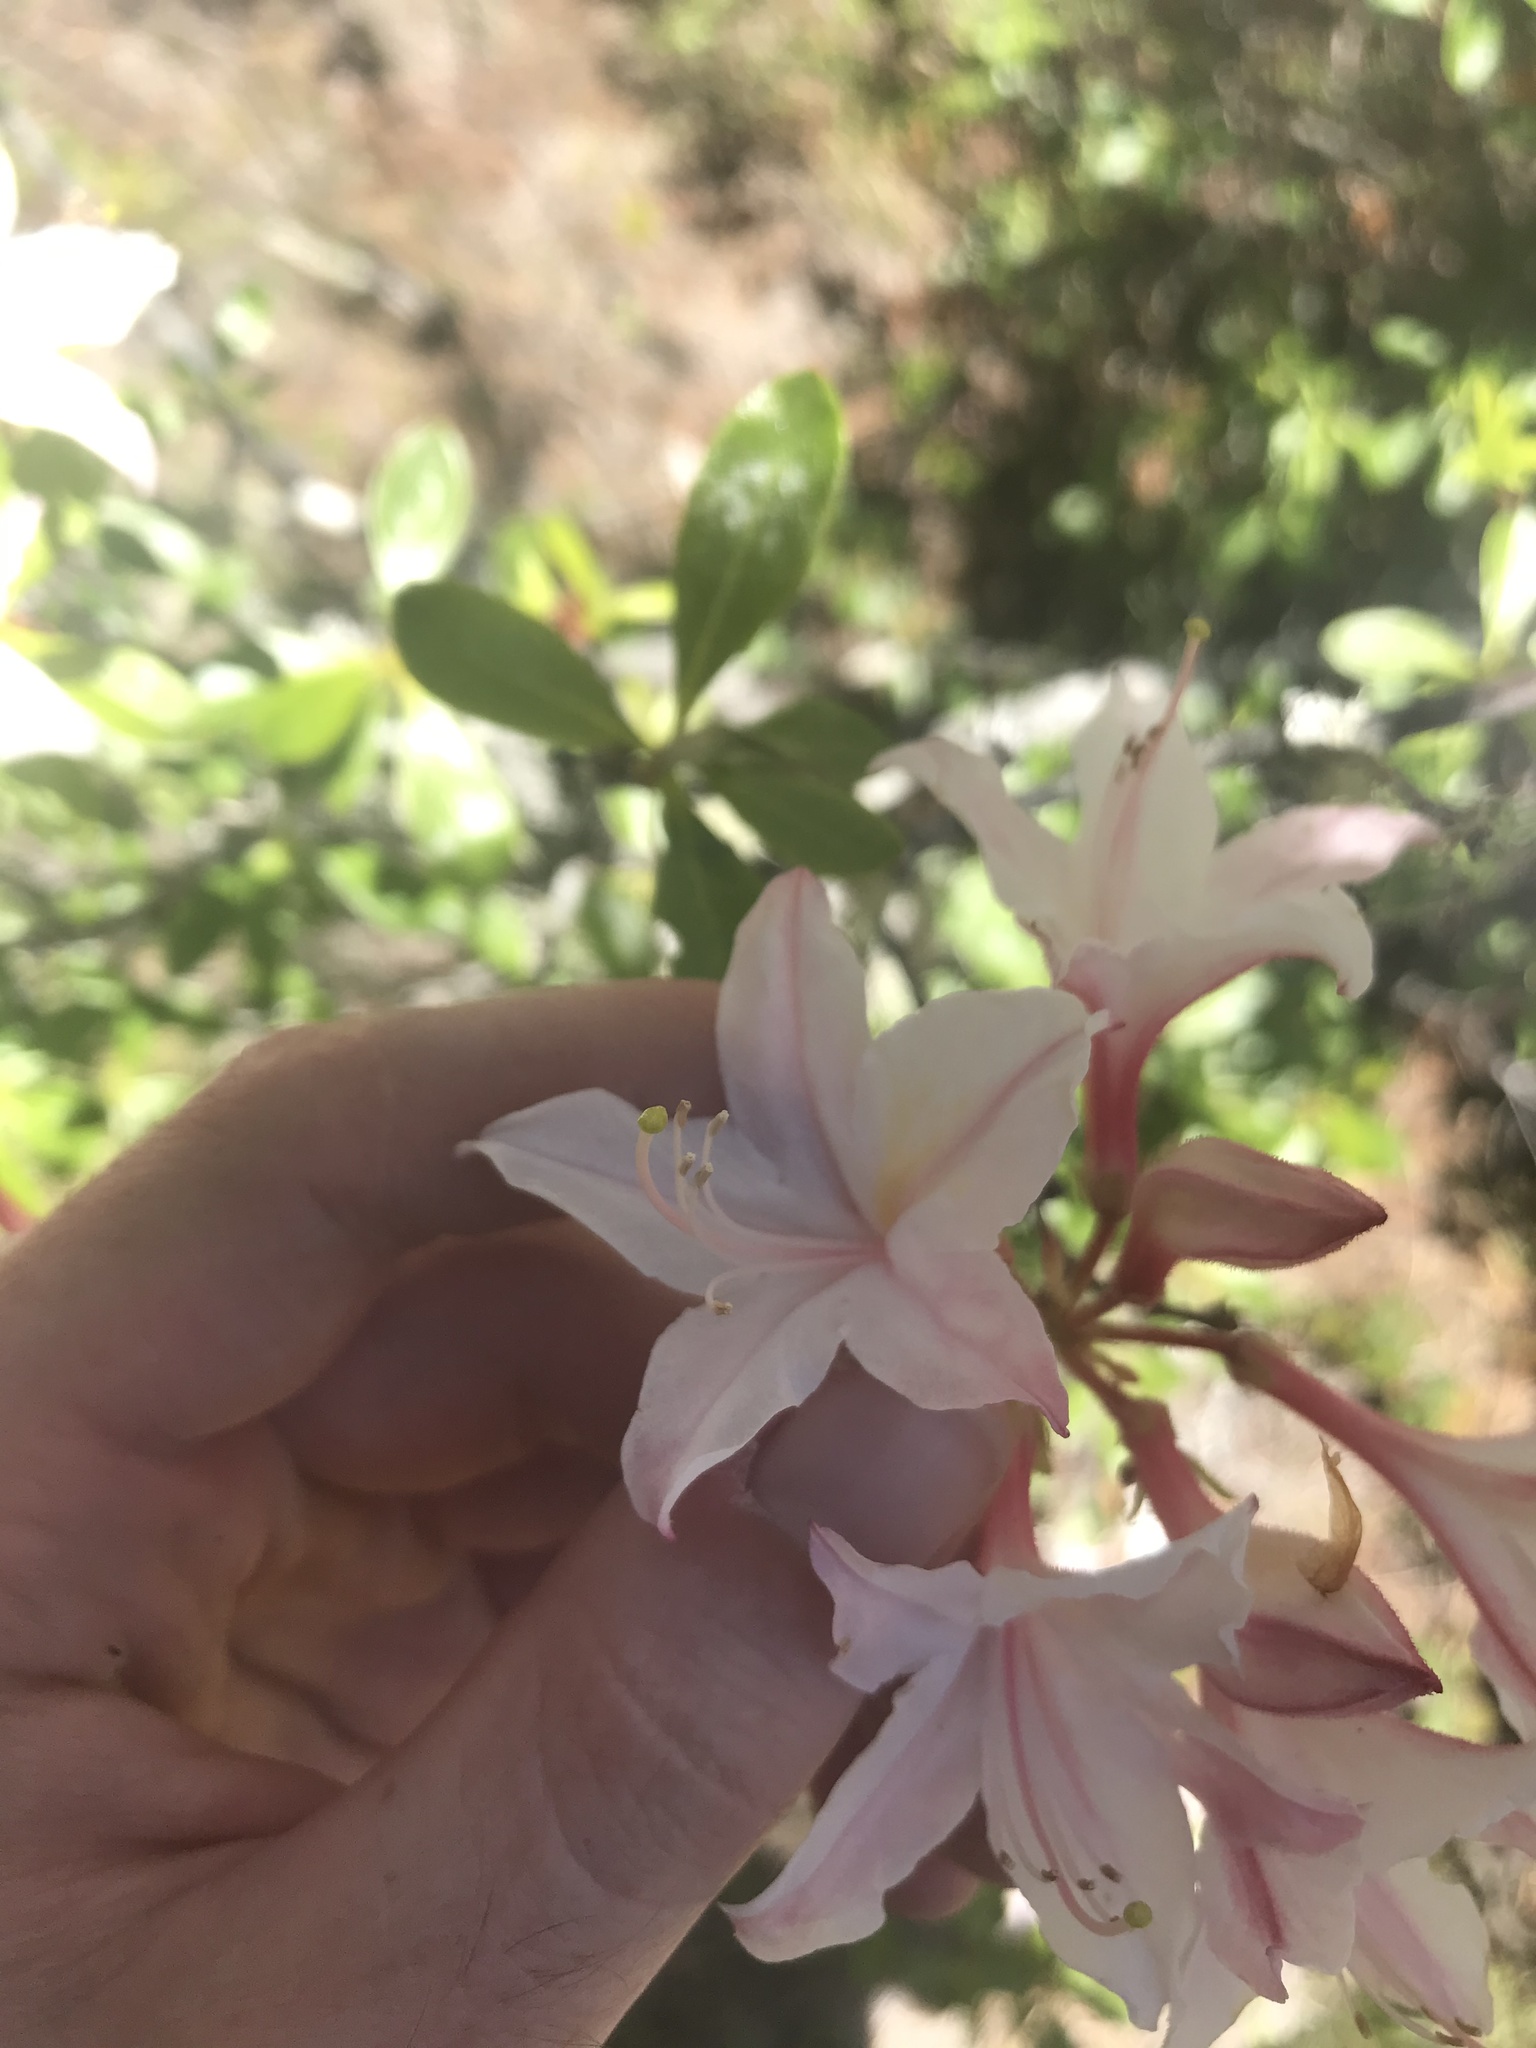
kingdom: Plantae
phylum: Tracheophyta
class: Magnoliopsida
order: Ericales
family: Ericaceae
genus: Rhododendron
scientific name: Rhododendron occidentale
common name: Western azalea
